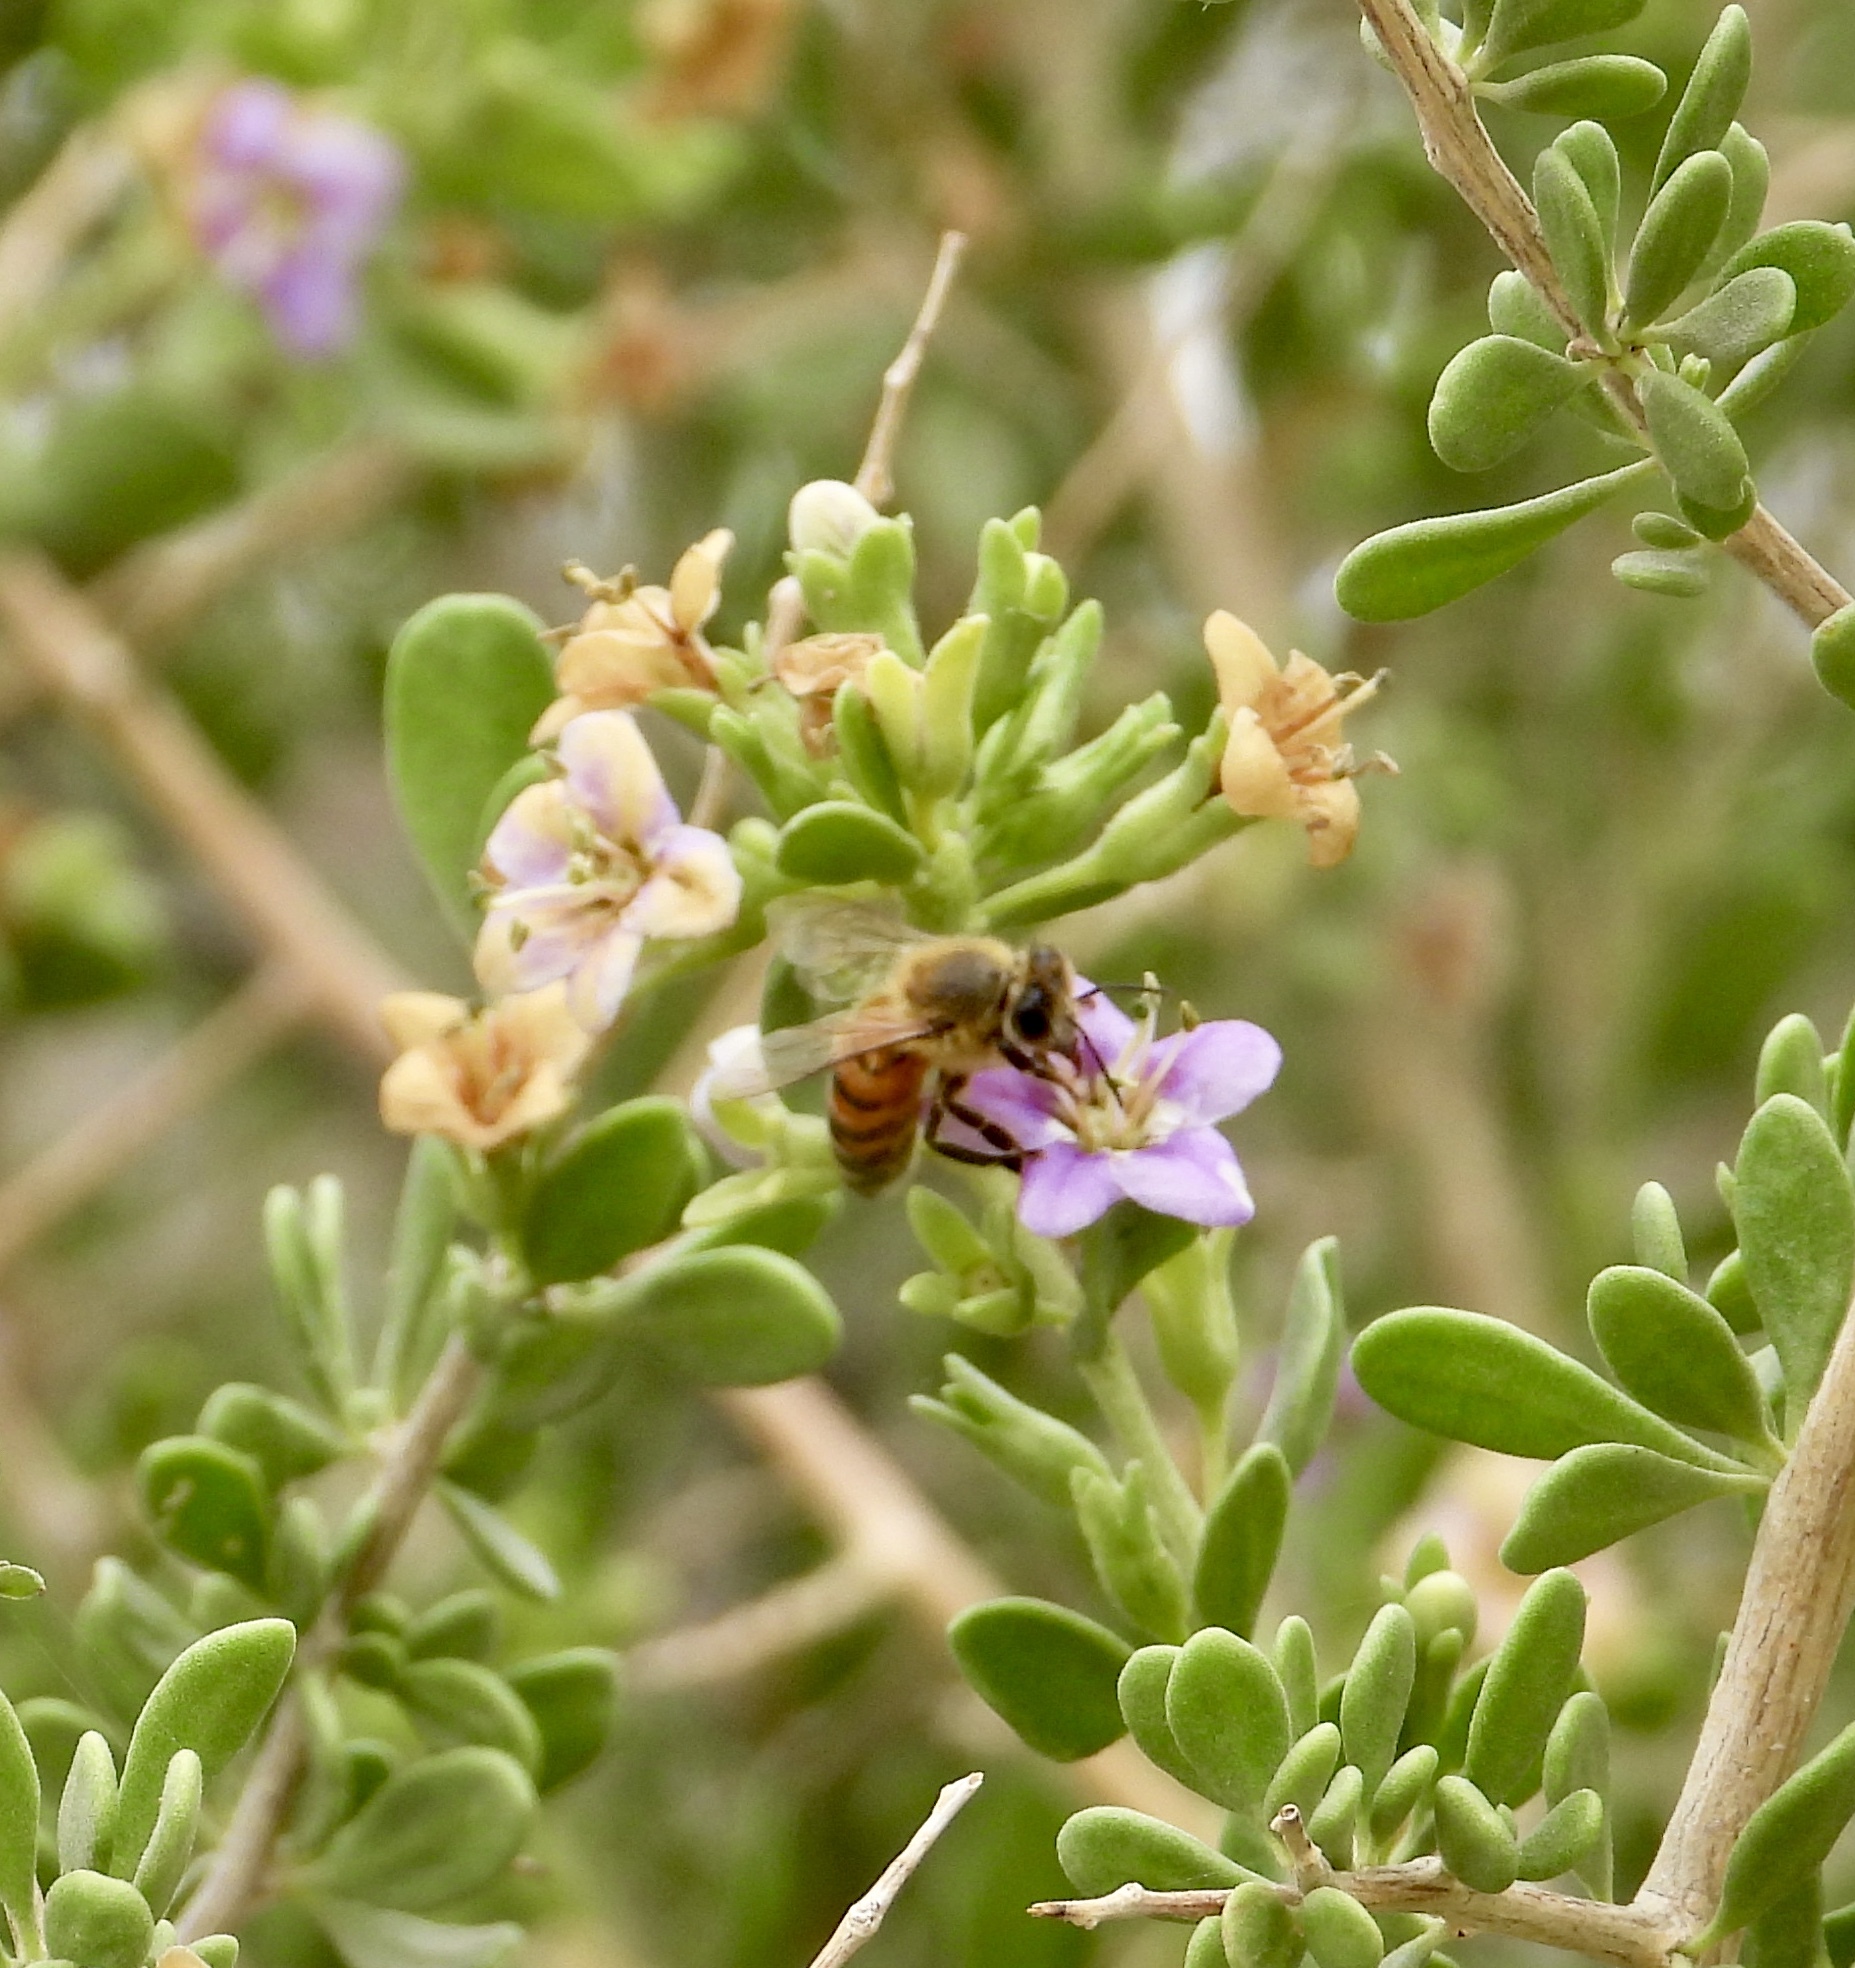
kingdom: Animalia
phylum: Arthropoda
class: Insecta
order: Hymenoptera
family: Apidae
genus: Apis
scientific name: Apis mellifera
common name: Honey bee
